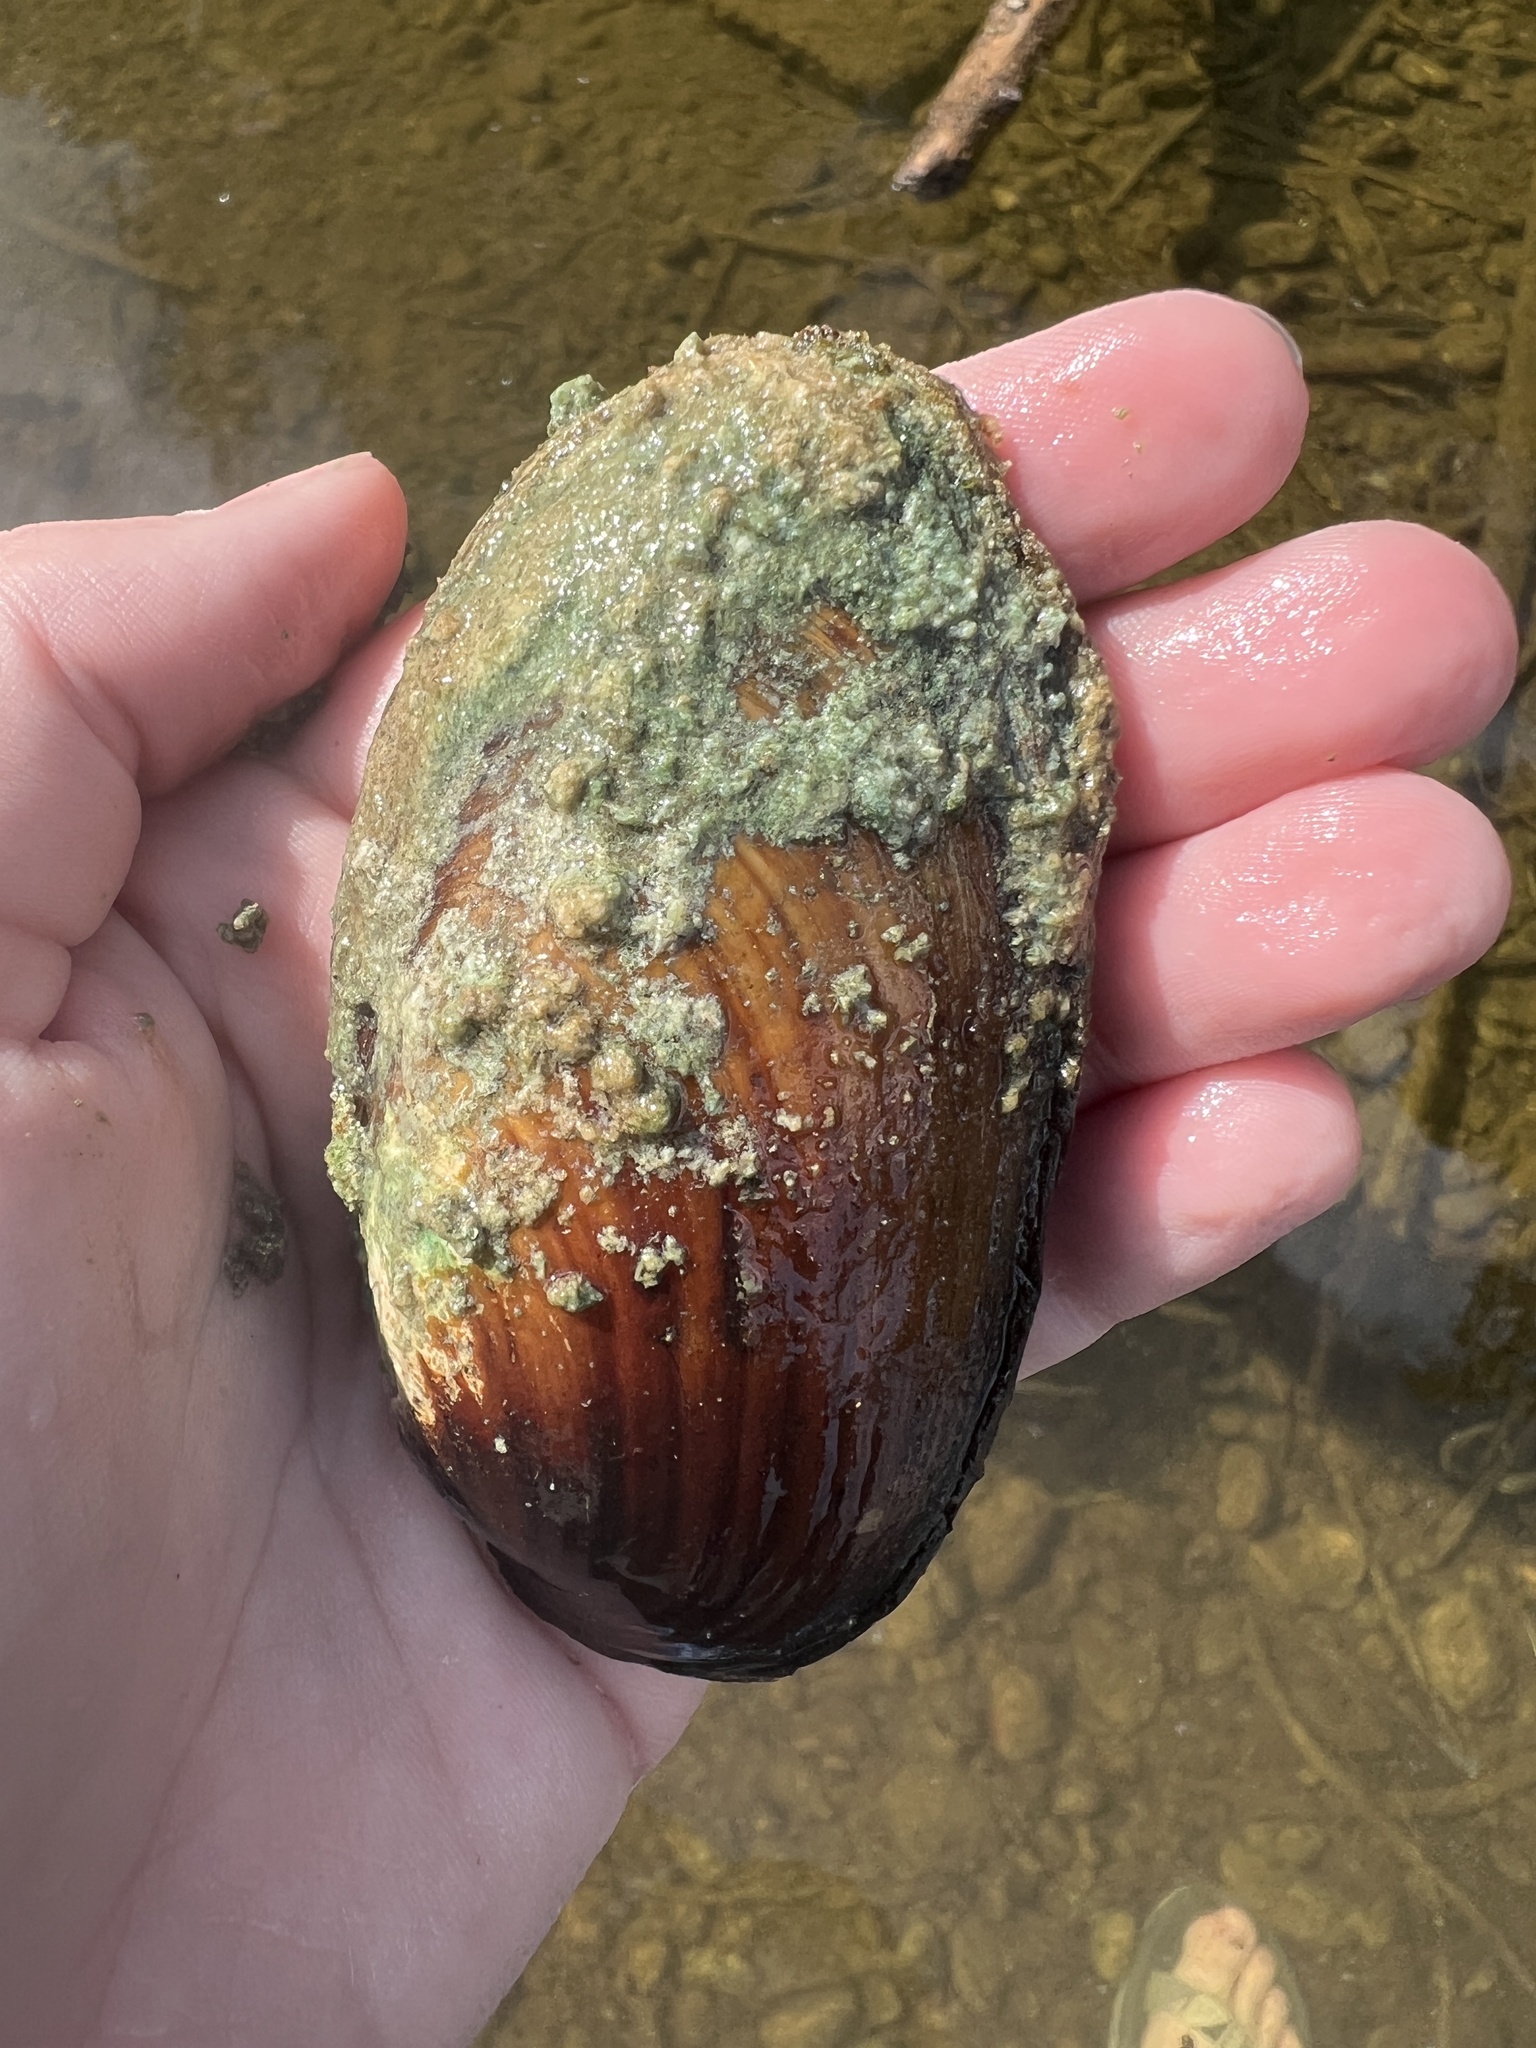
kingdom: Animalia
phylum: Mollusca
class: Bivalvia
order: Unionida
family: Unionidae
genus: Lampsilis
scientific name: Lampsilis siliquoidea
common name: Fatmucket
